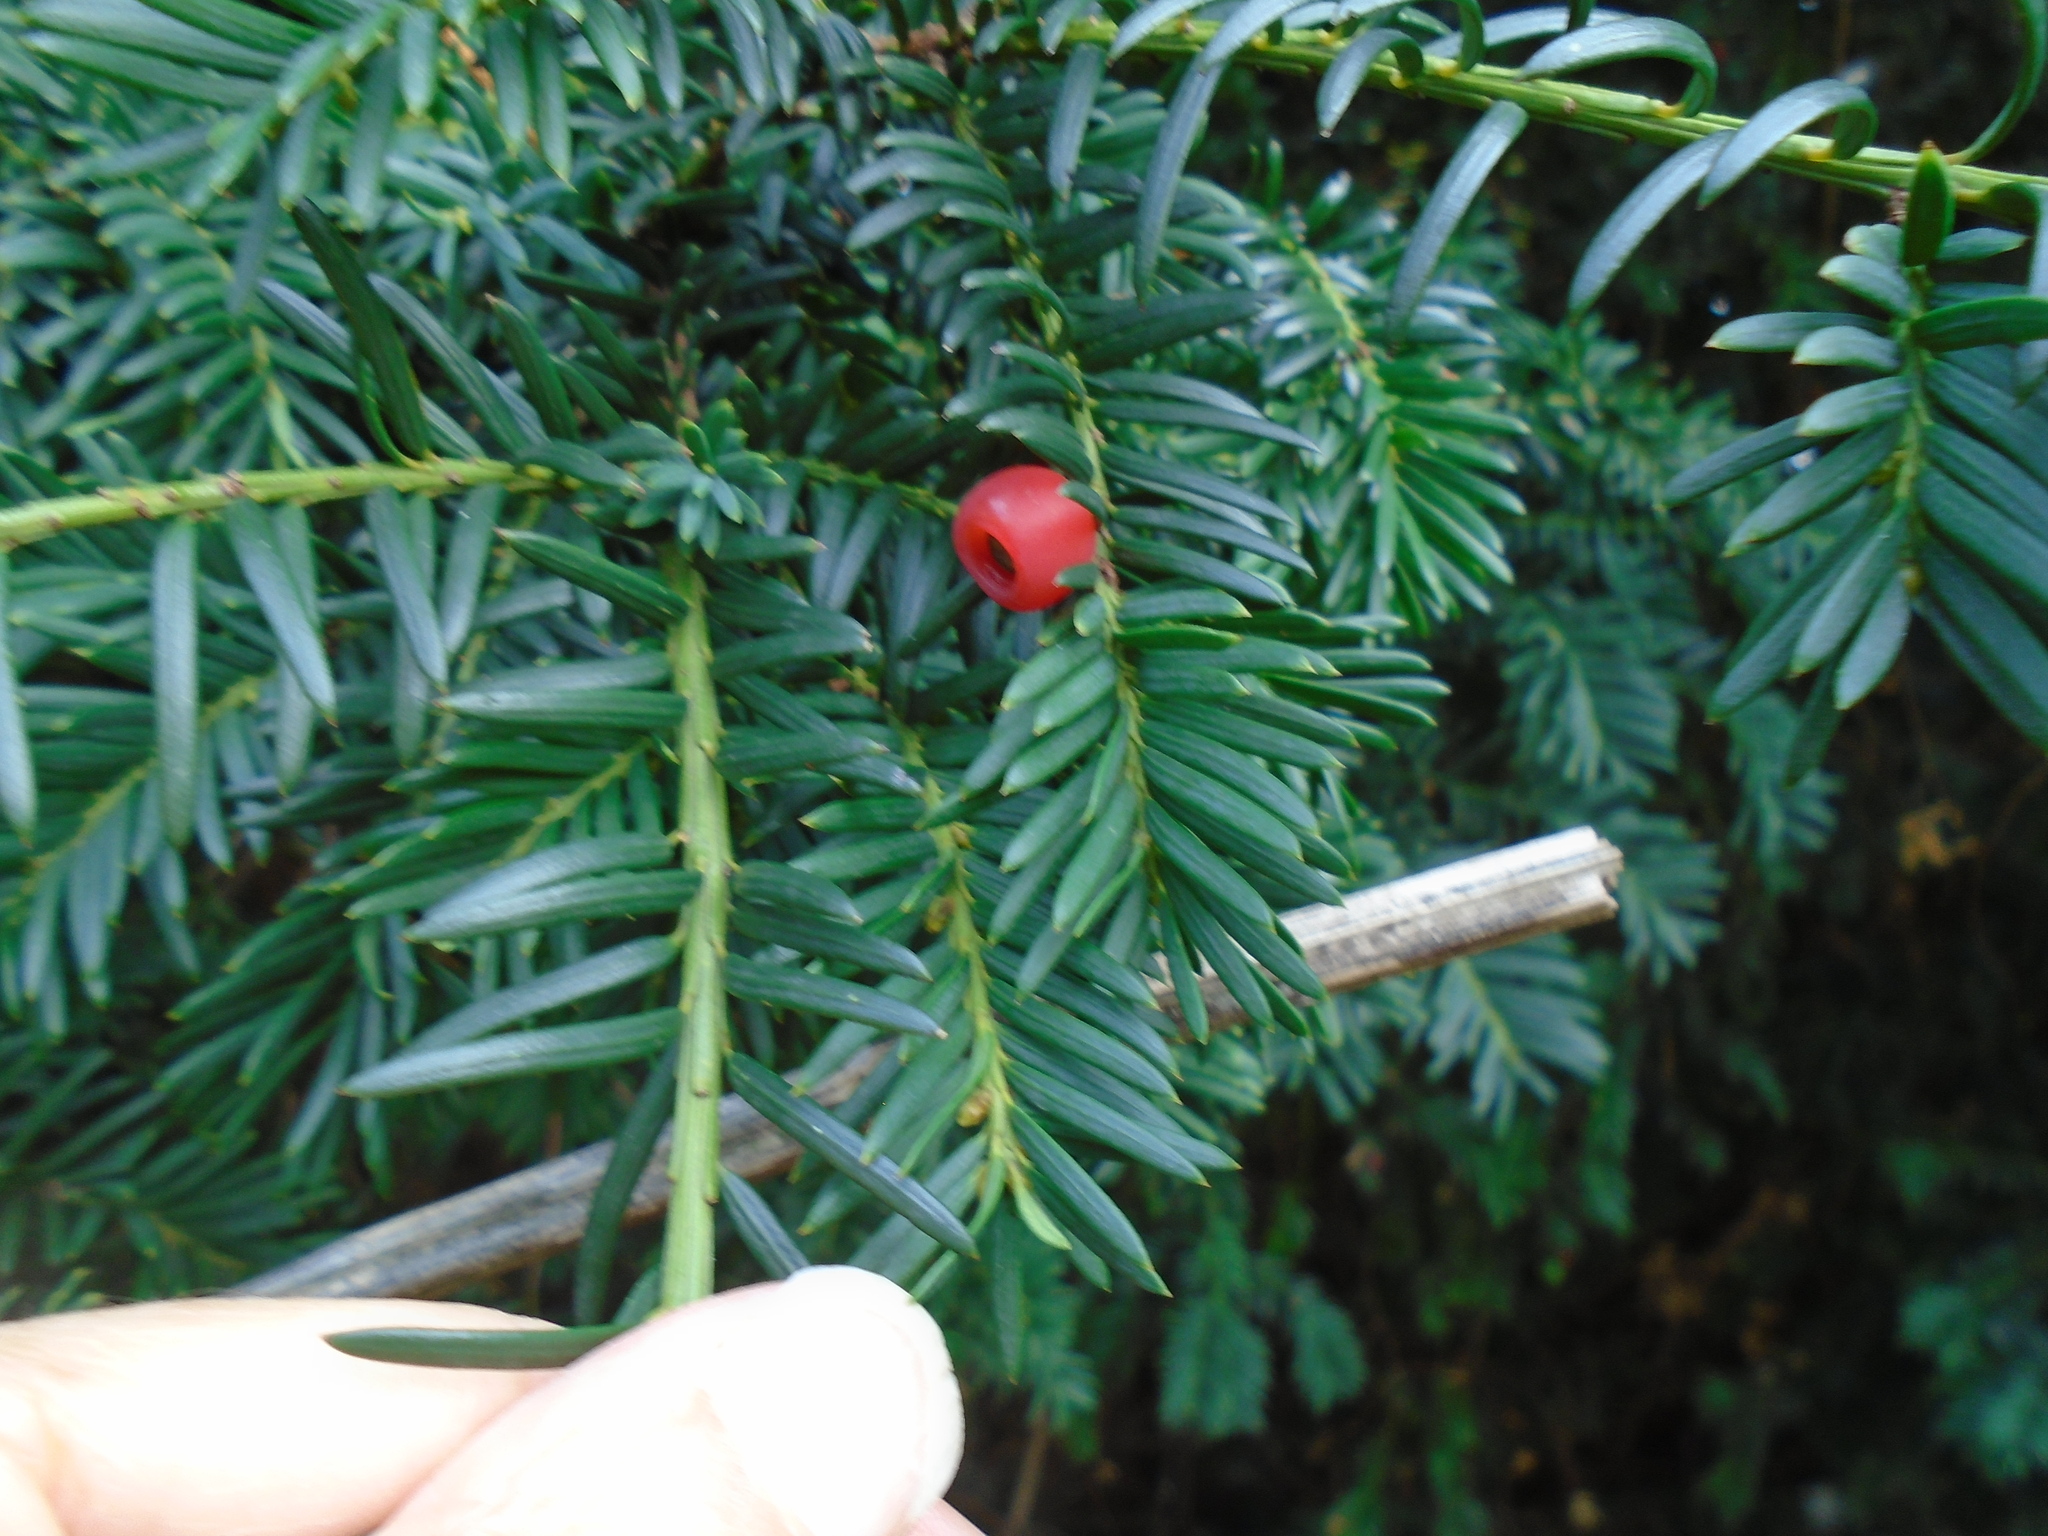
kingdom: Plantae
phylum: Tracheophyta
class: Pinopsida
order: Pinales
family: Taxaceae
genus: Taxus
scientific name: Taxus baccata
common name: Yew
